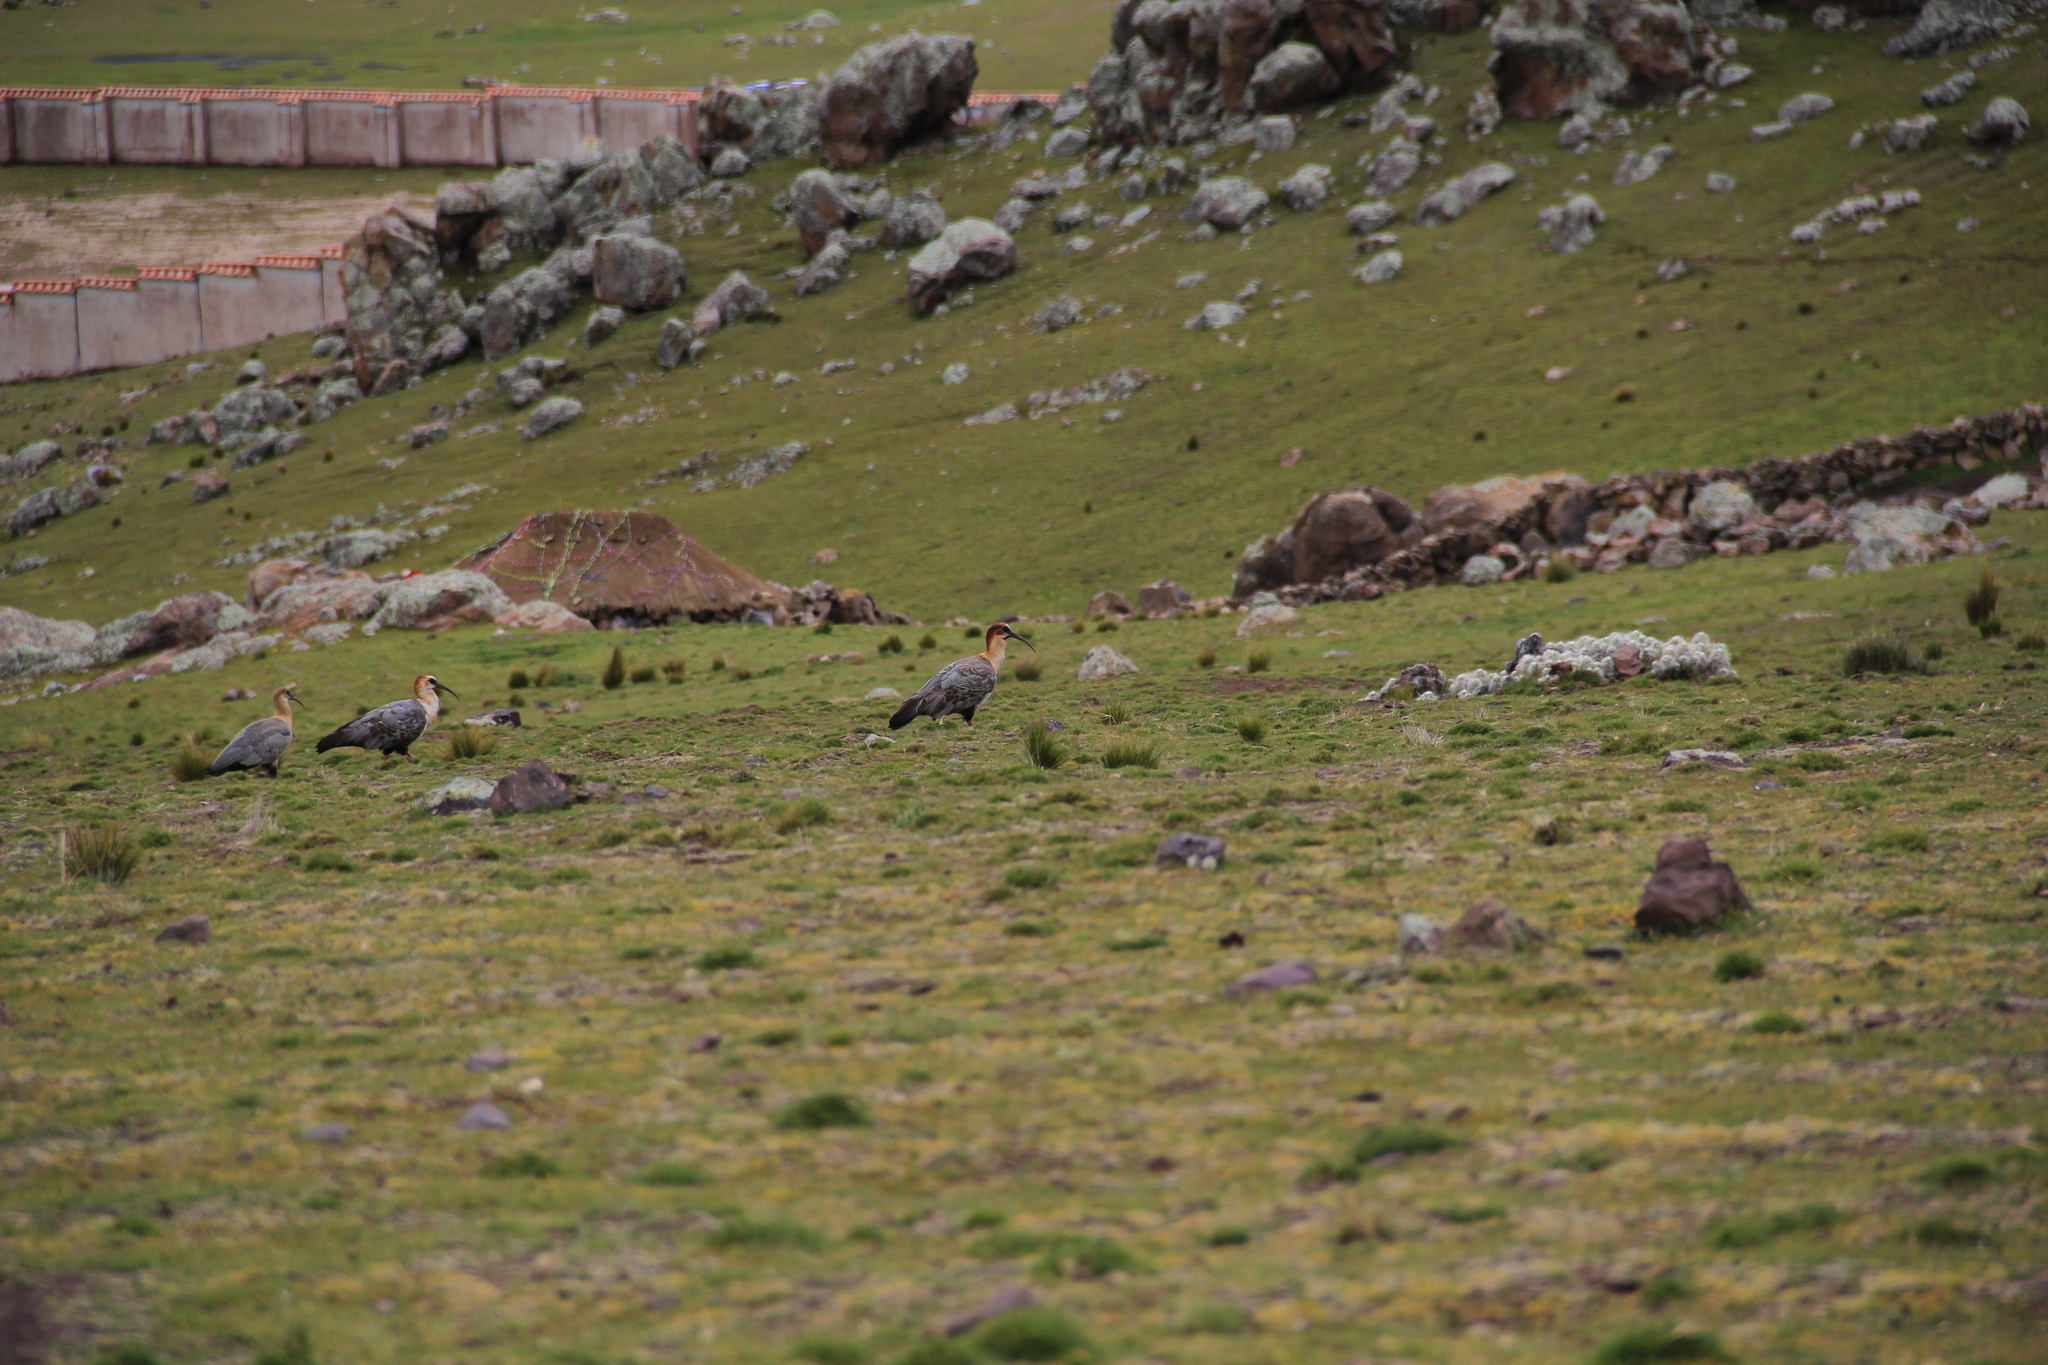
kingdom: Animalia
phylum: Chordata
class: Aves
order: Pelecaniformes
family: Threskiornithidae
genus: Theristicus
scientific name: Theristicus melanopis
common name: Black-faced ibis
